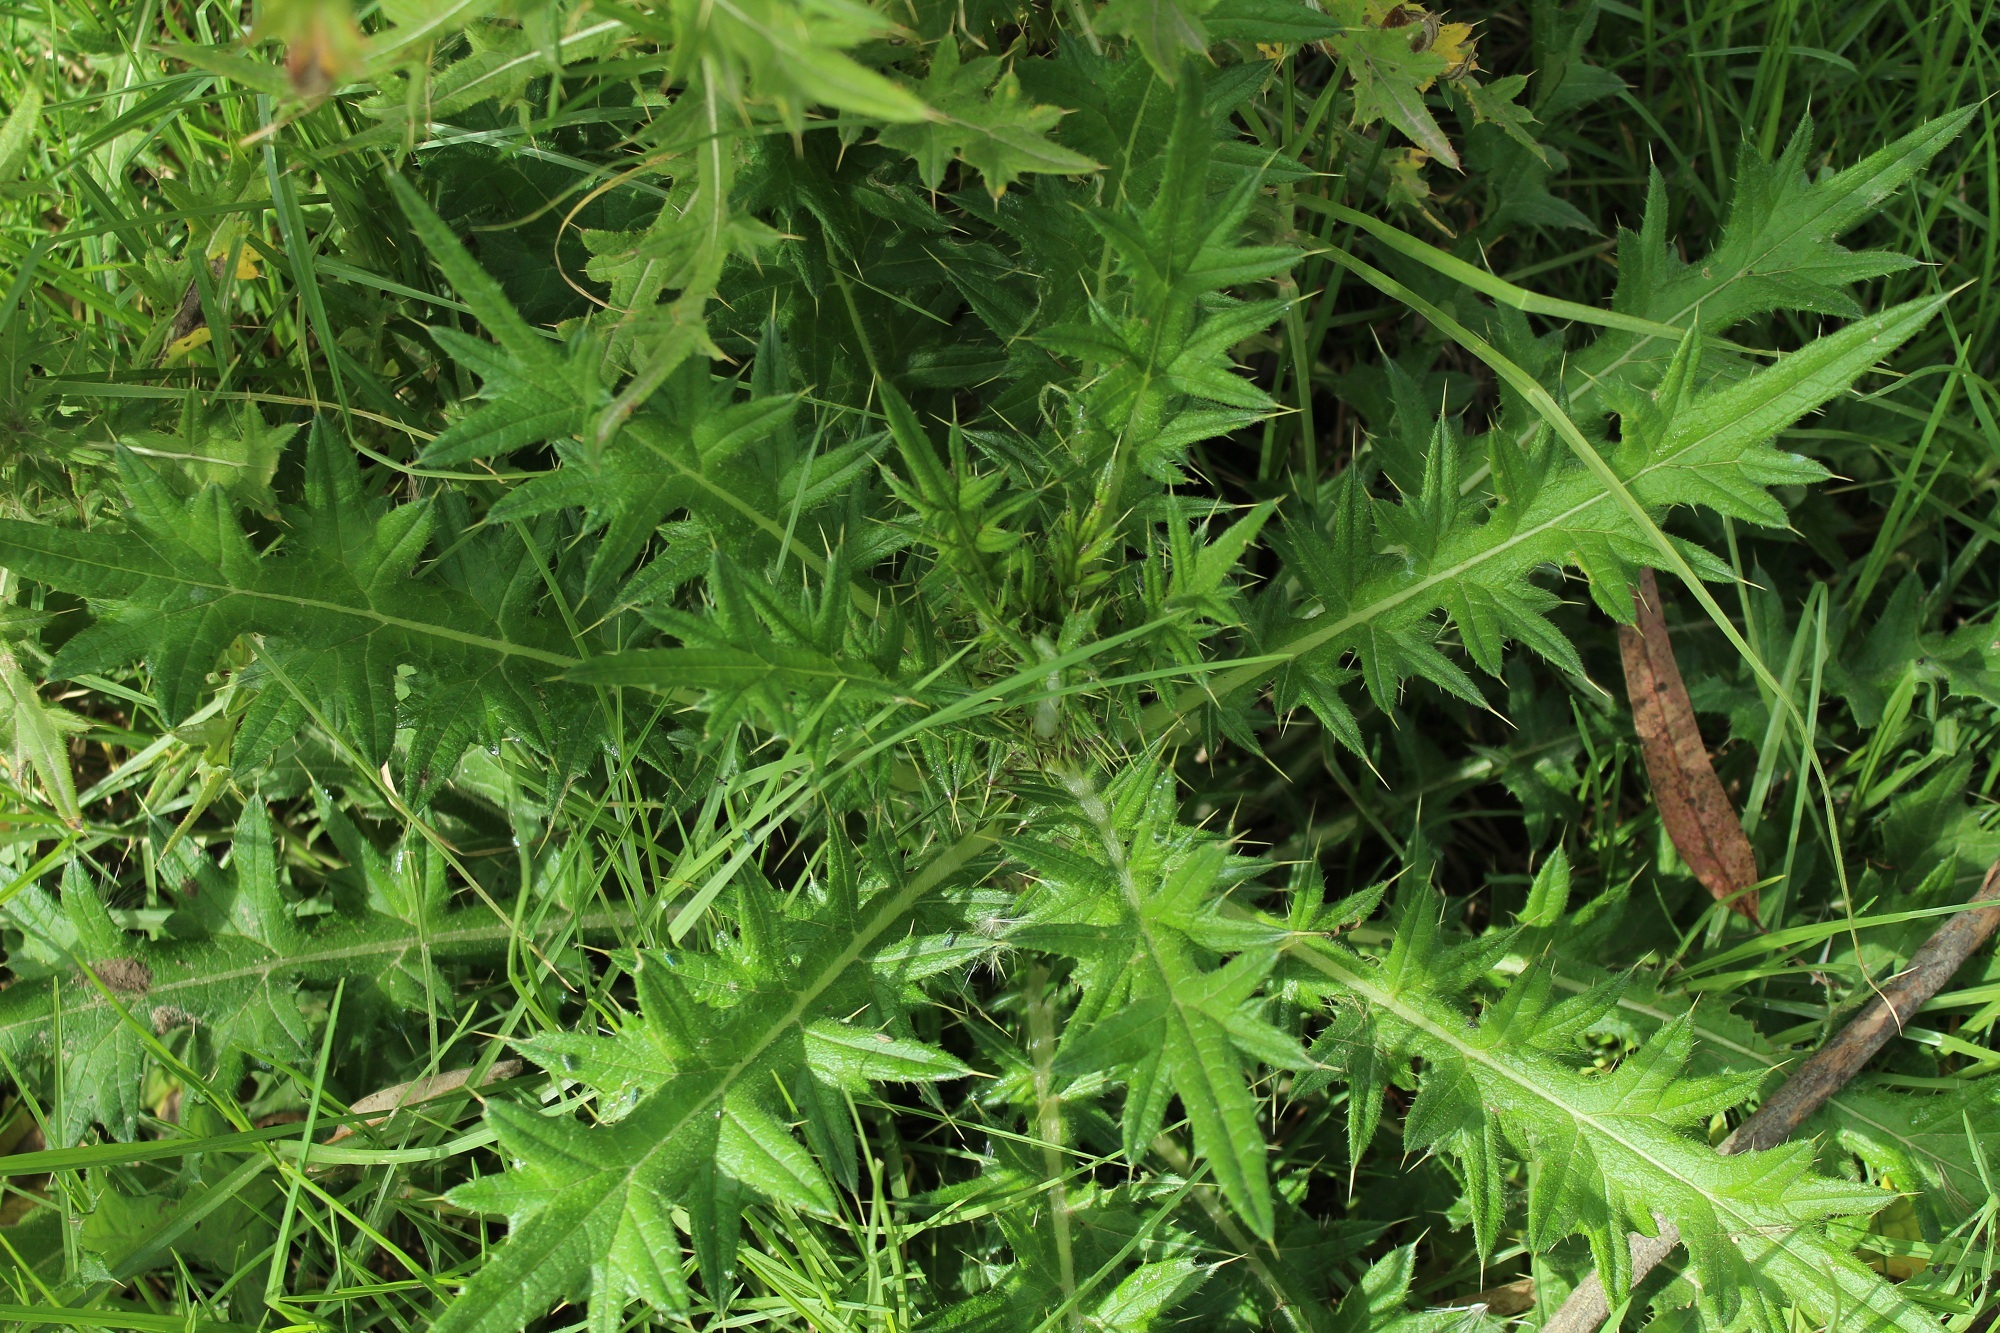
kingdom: Plantae
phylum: Tracheophyta
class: Magnoliopsida
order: Asterales
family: Asteraceae
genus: Cirsium
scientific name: Cirsium vulgare
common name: Bull thistle
